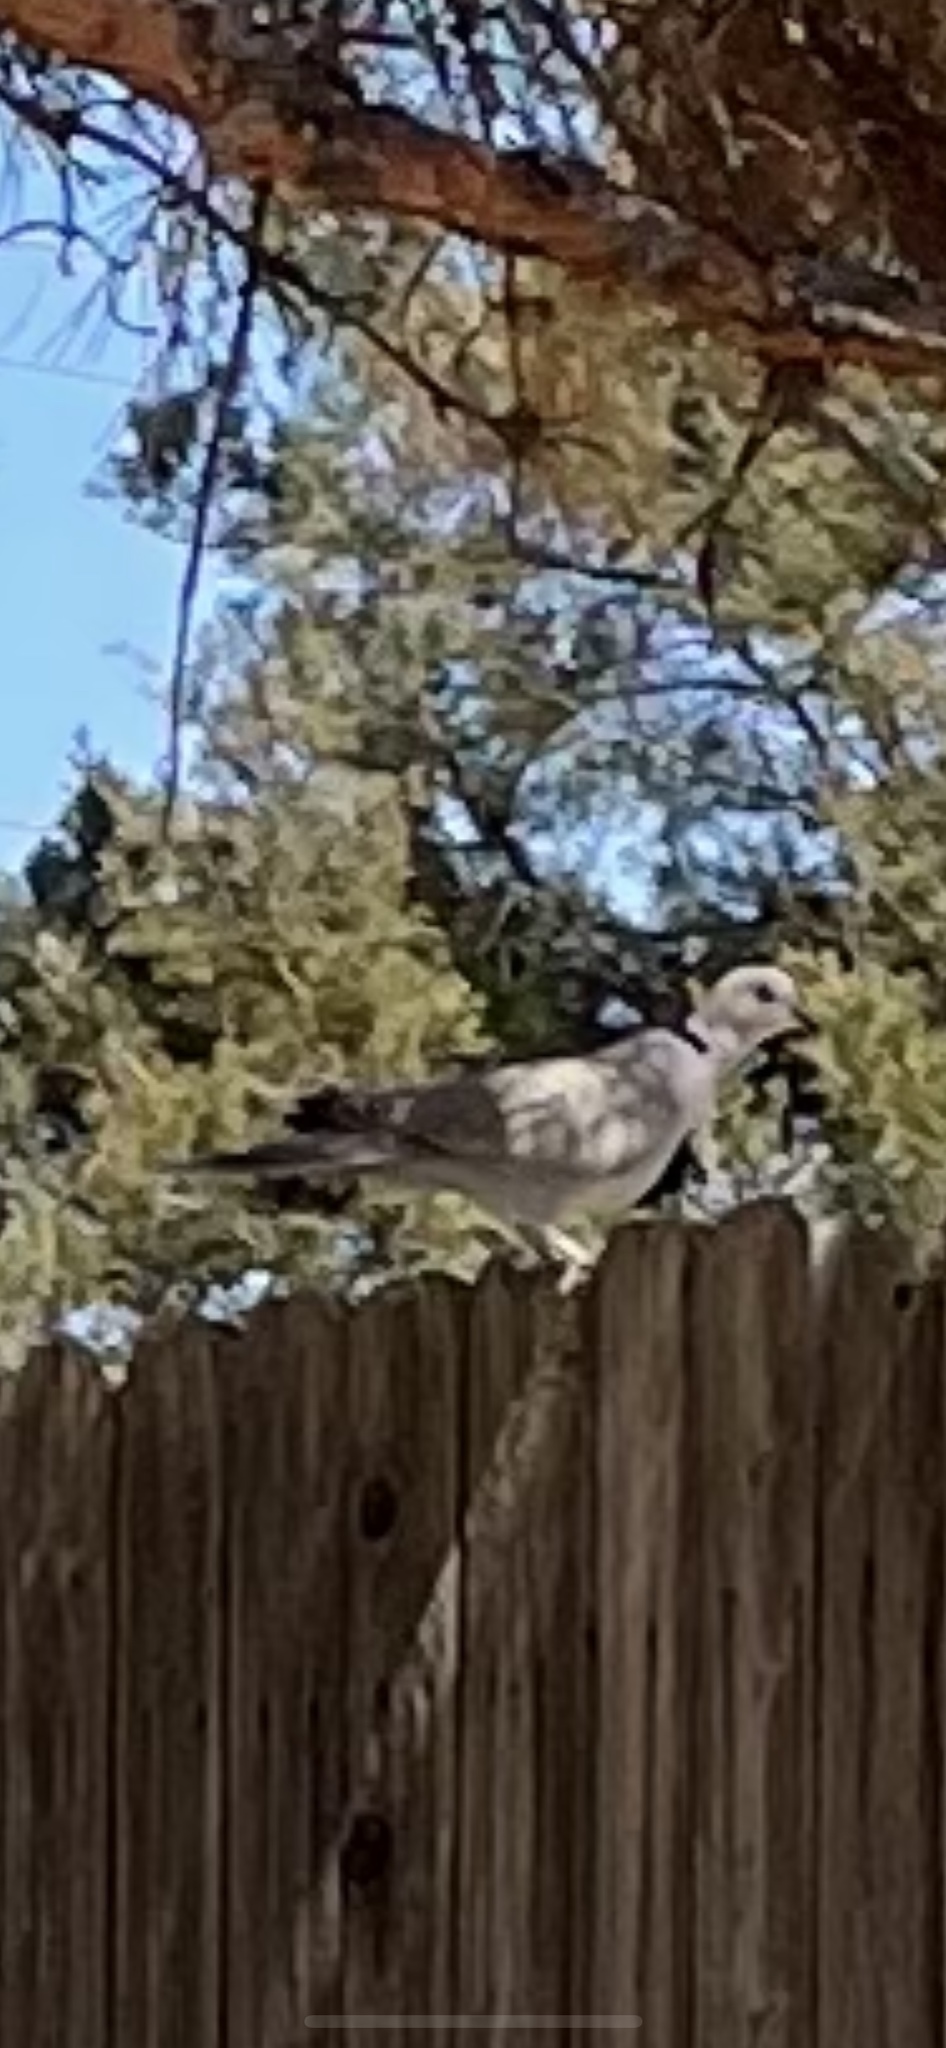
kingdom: Animalia
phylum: Chordata
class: Aves
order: Columbiformes
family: Columbidae
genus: Streptopelia
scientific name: Streptopelia decaocto
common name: Eurasian collared dove
